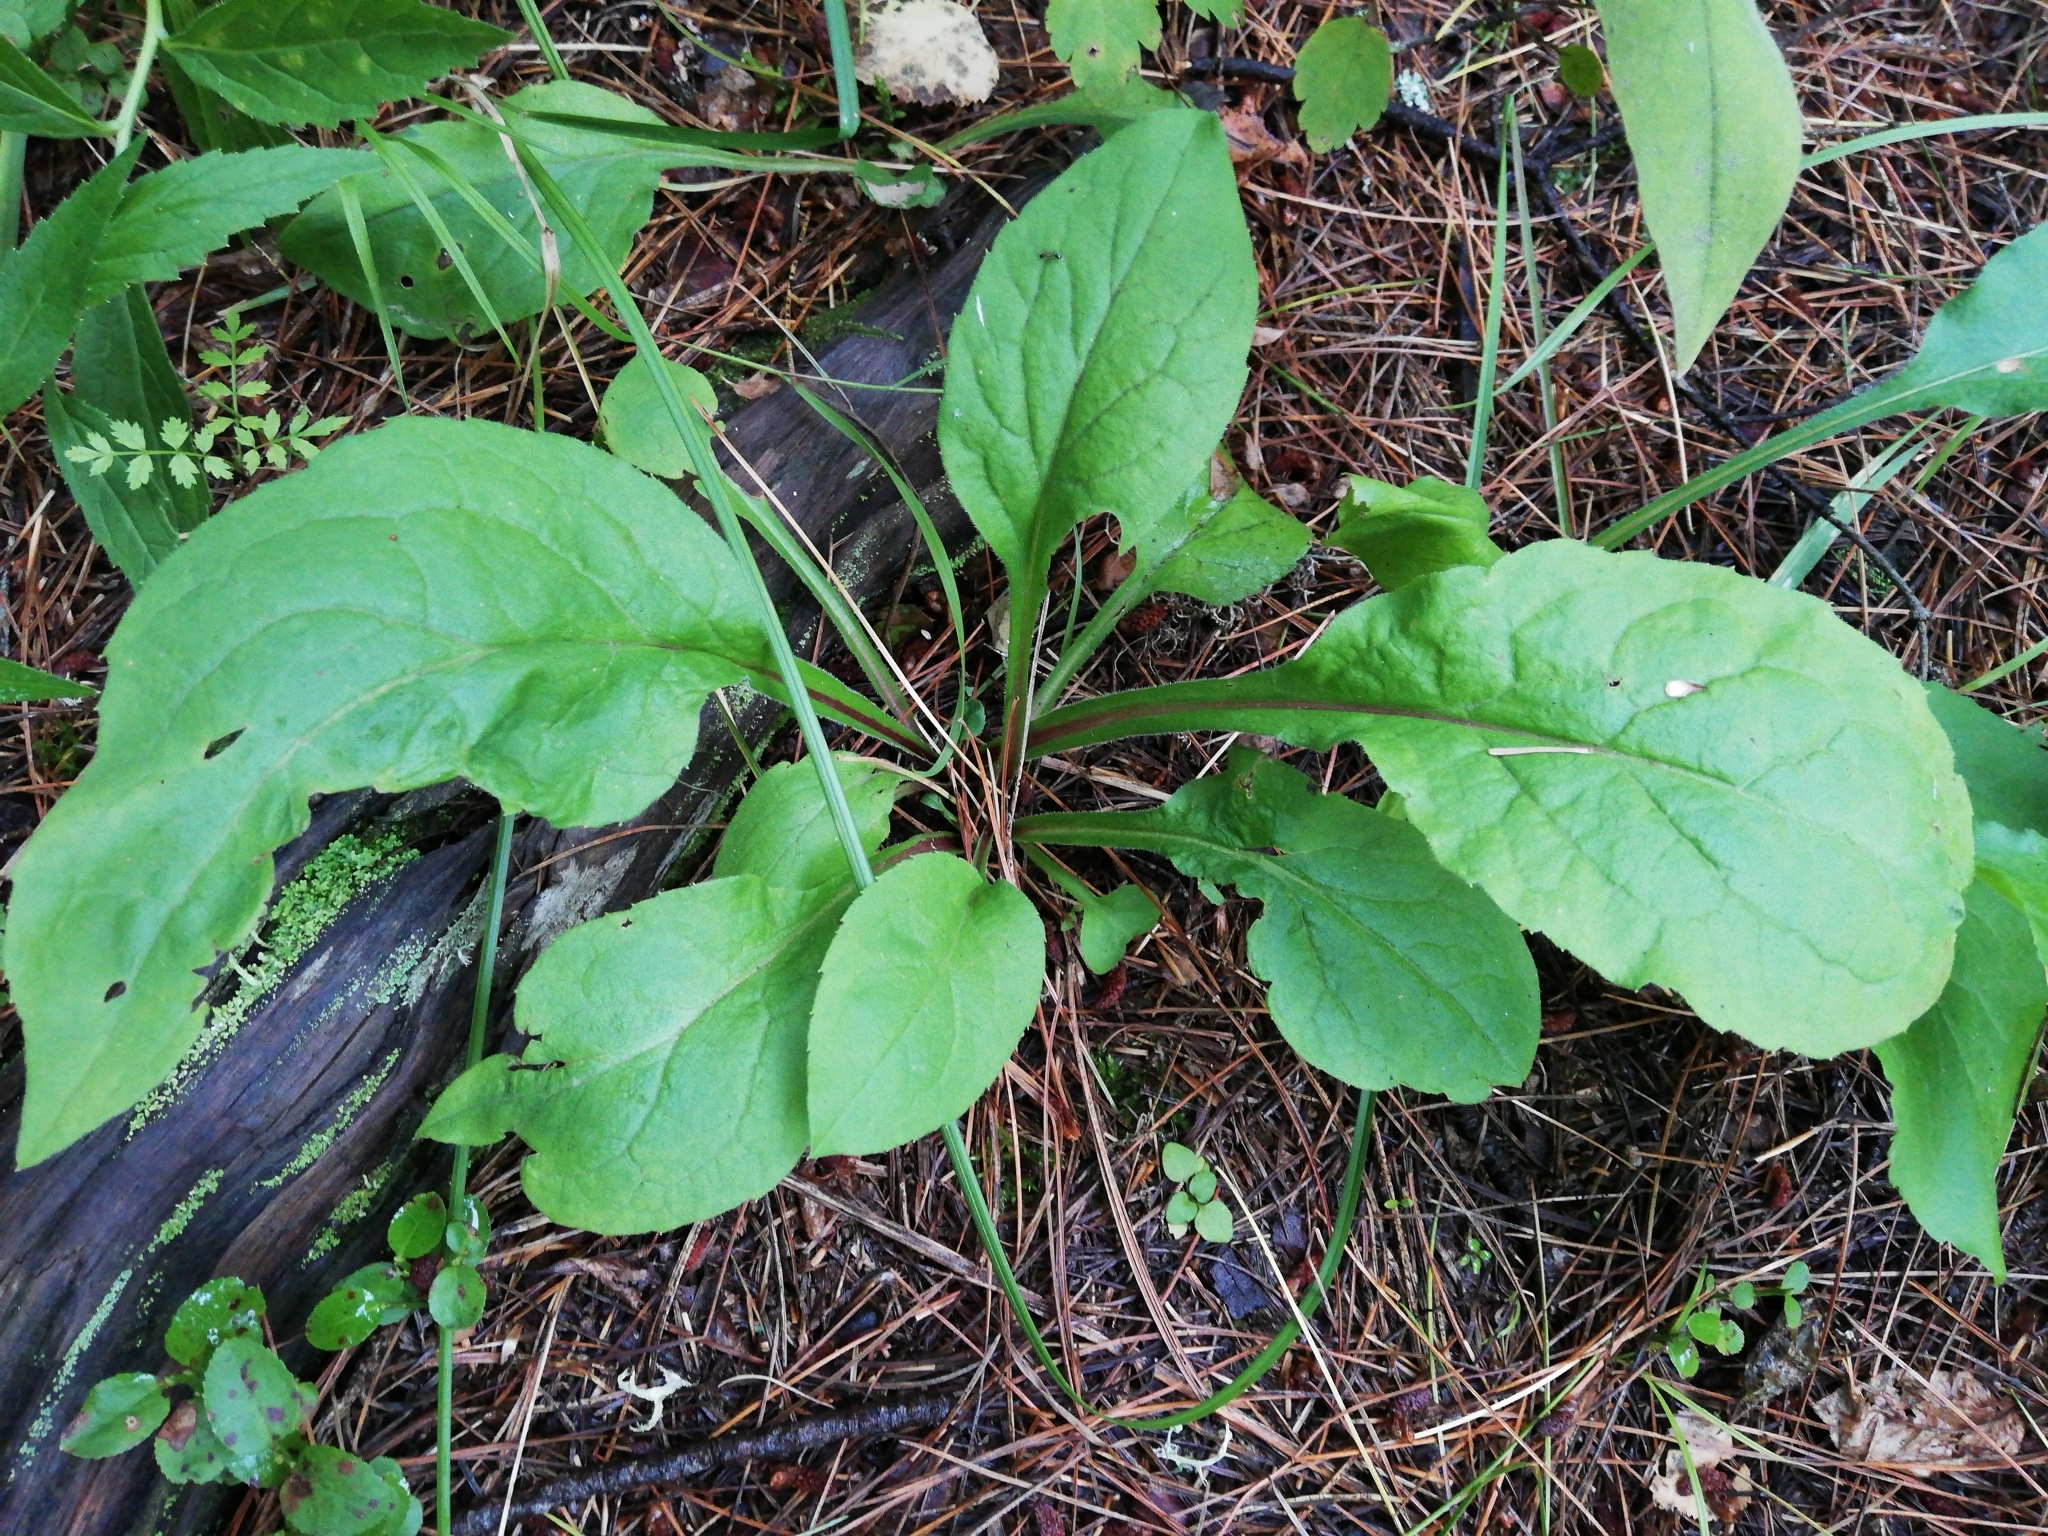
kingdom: Plantae
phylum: Tracheophyta
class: Magnoliopsida
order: Asterales
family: Asteraceae
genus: Solidago
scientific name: Solidago virgaurea
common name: Goldenrod
